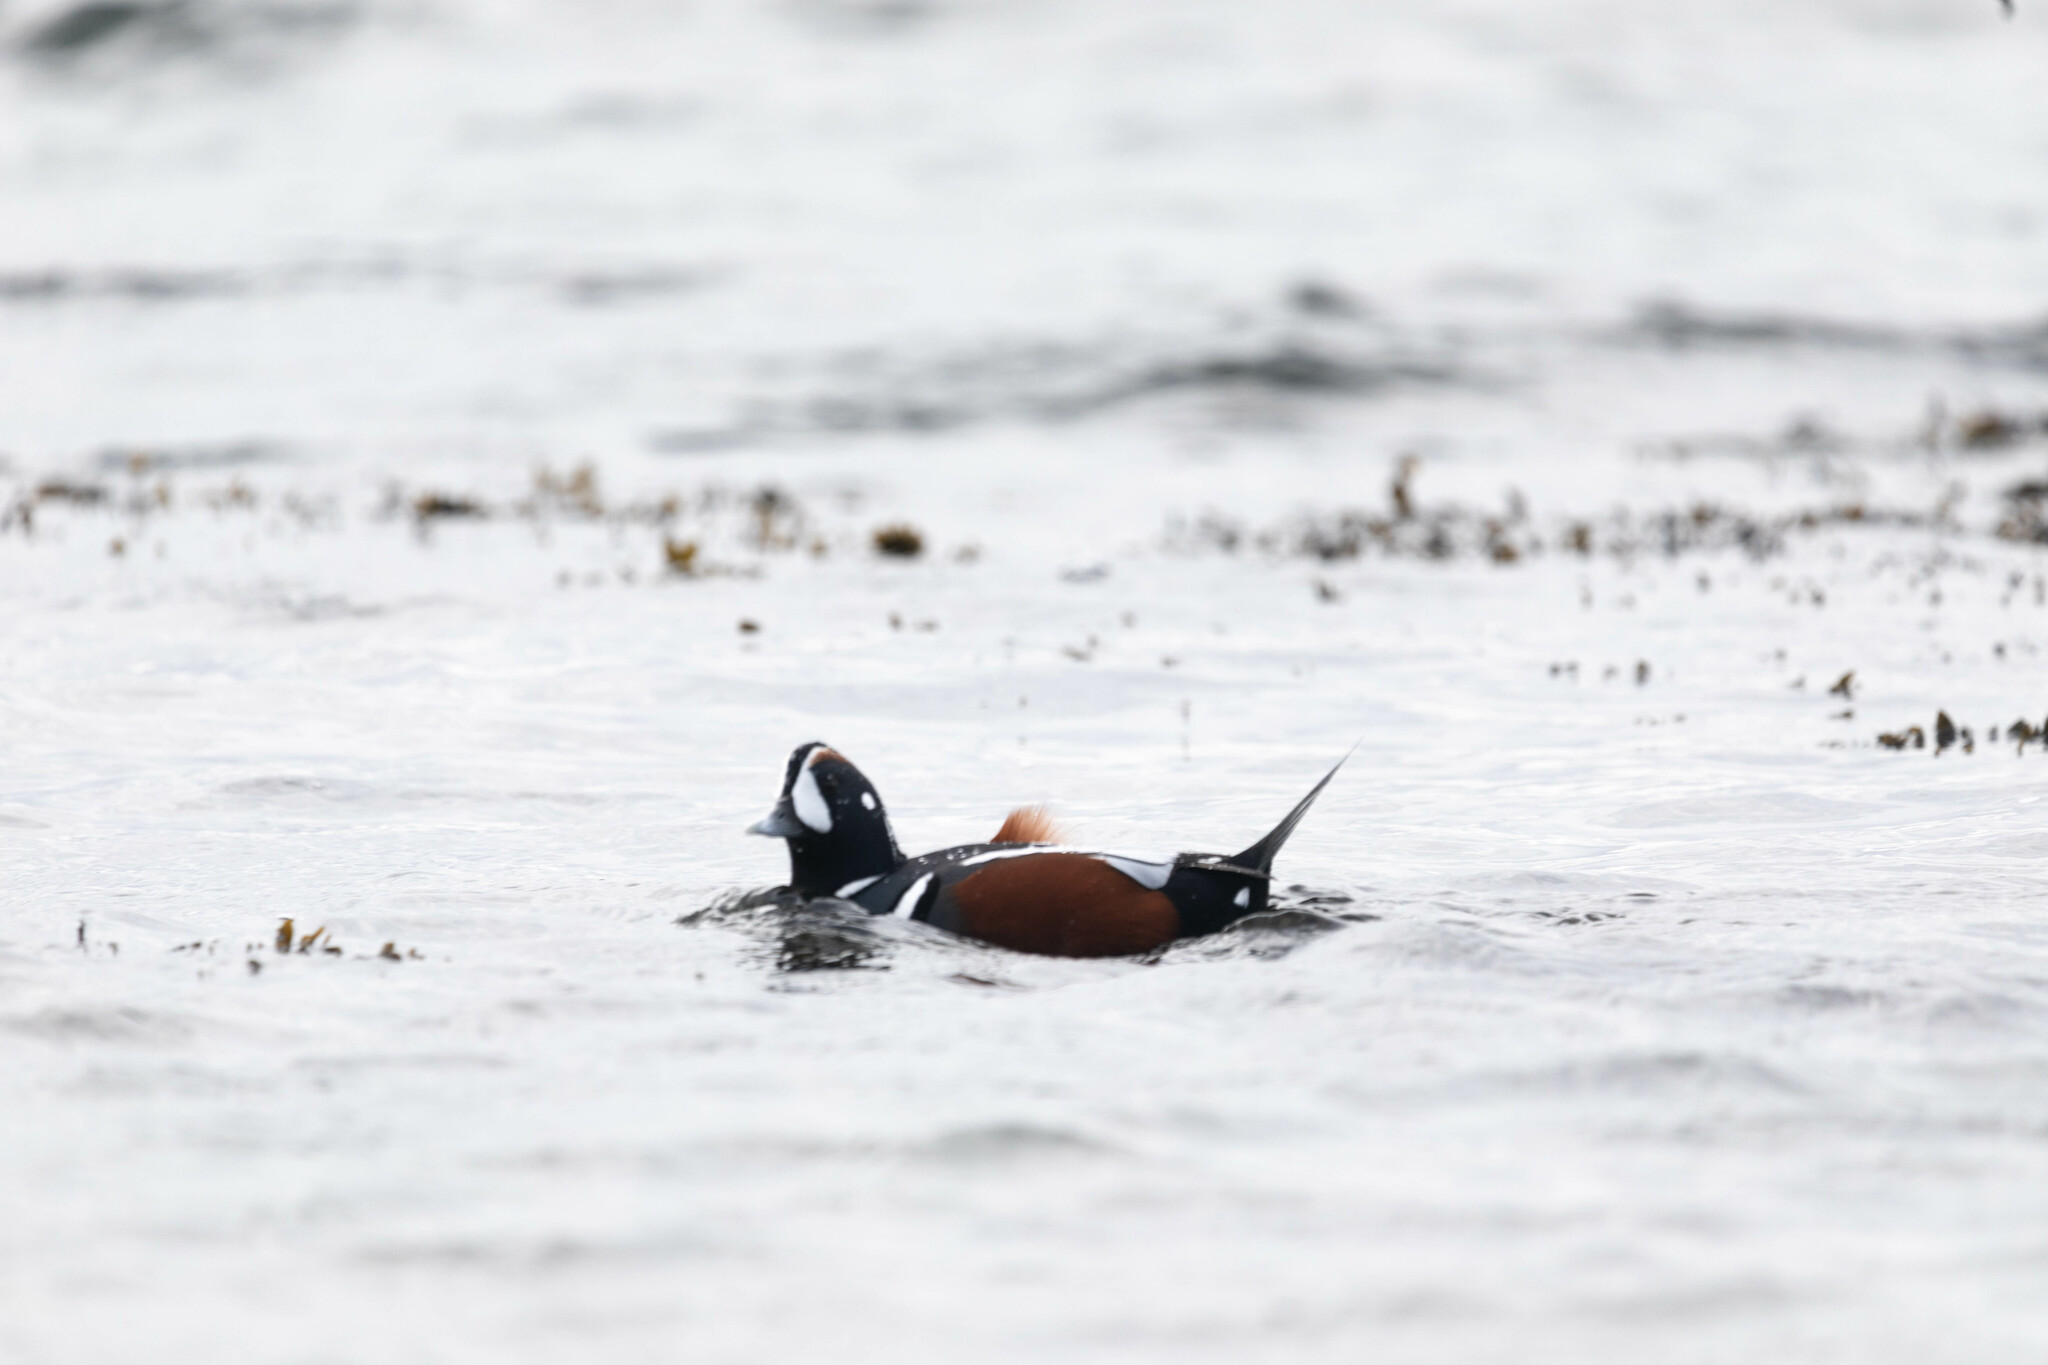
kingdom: Animalia
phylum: Chordata
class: Aves
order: Anseriformes
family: Anatidae
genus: Histrionicus
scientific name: Histrionicus histrionicus
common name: Harlequin duck
